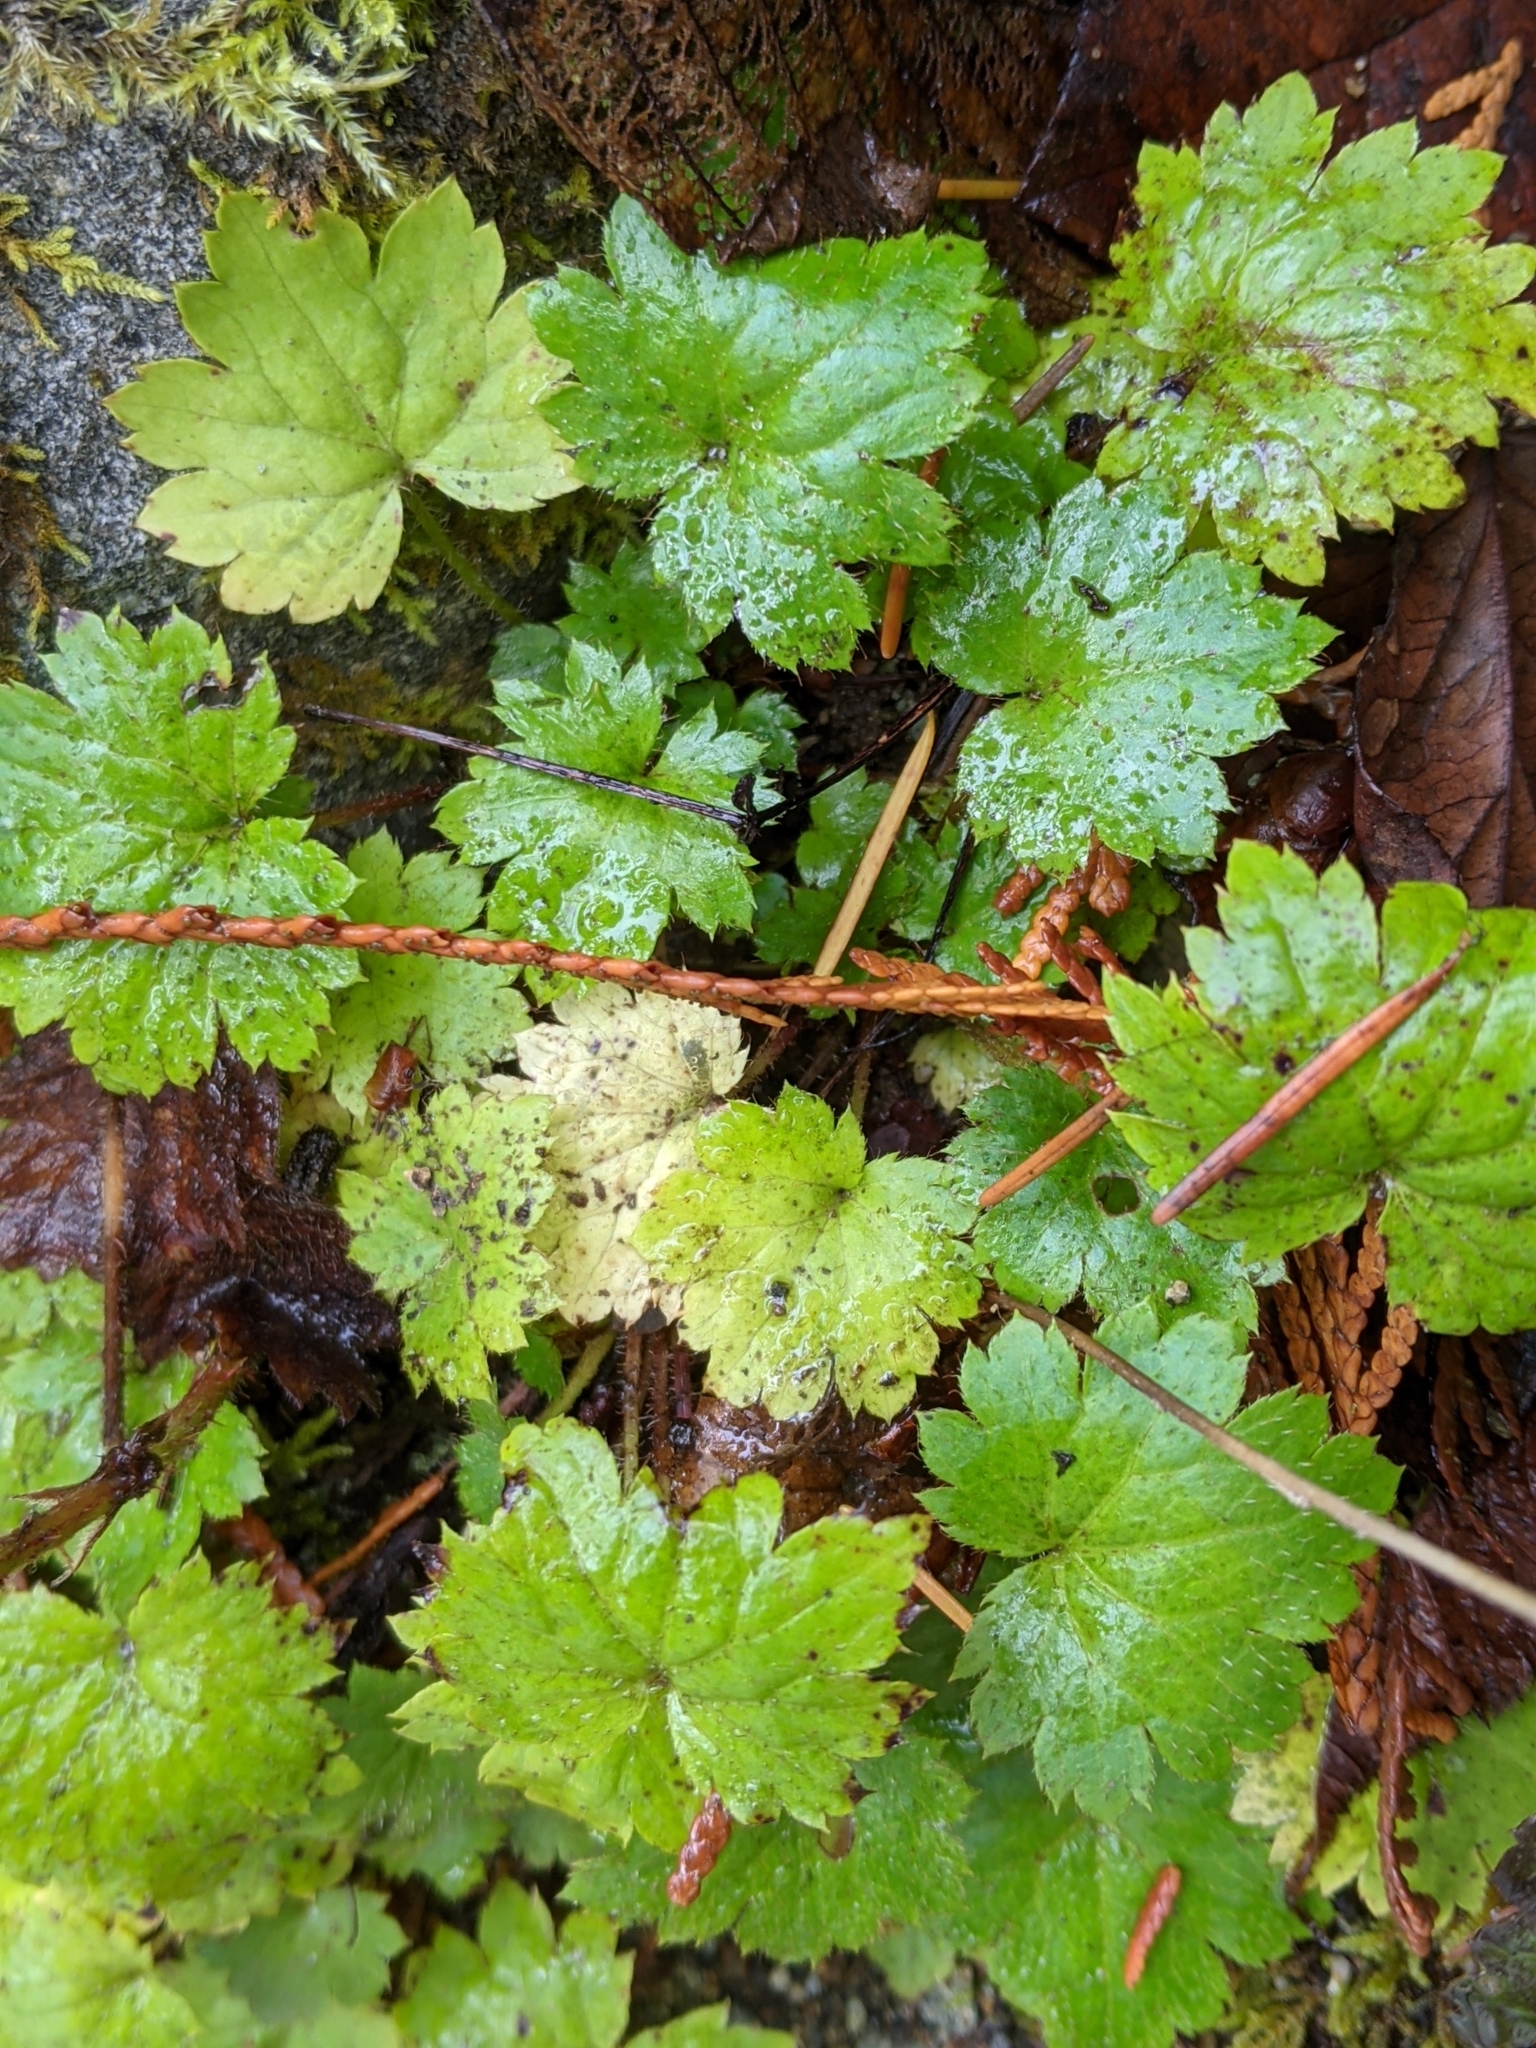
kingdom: Plantae
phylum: Tracheophyta
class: Magnoliopsida
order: Saxifragales
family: Saxifragaceae
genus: Boykinia
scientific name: Boykinia occidentalis
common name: Coast boykinia
